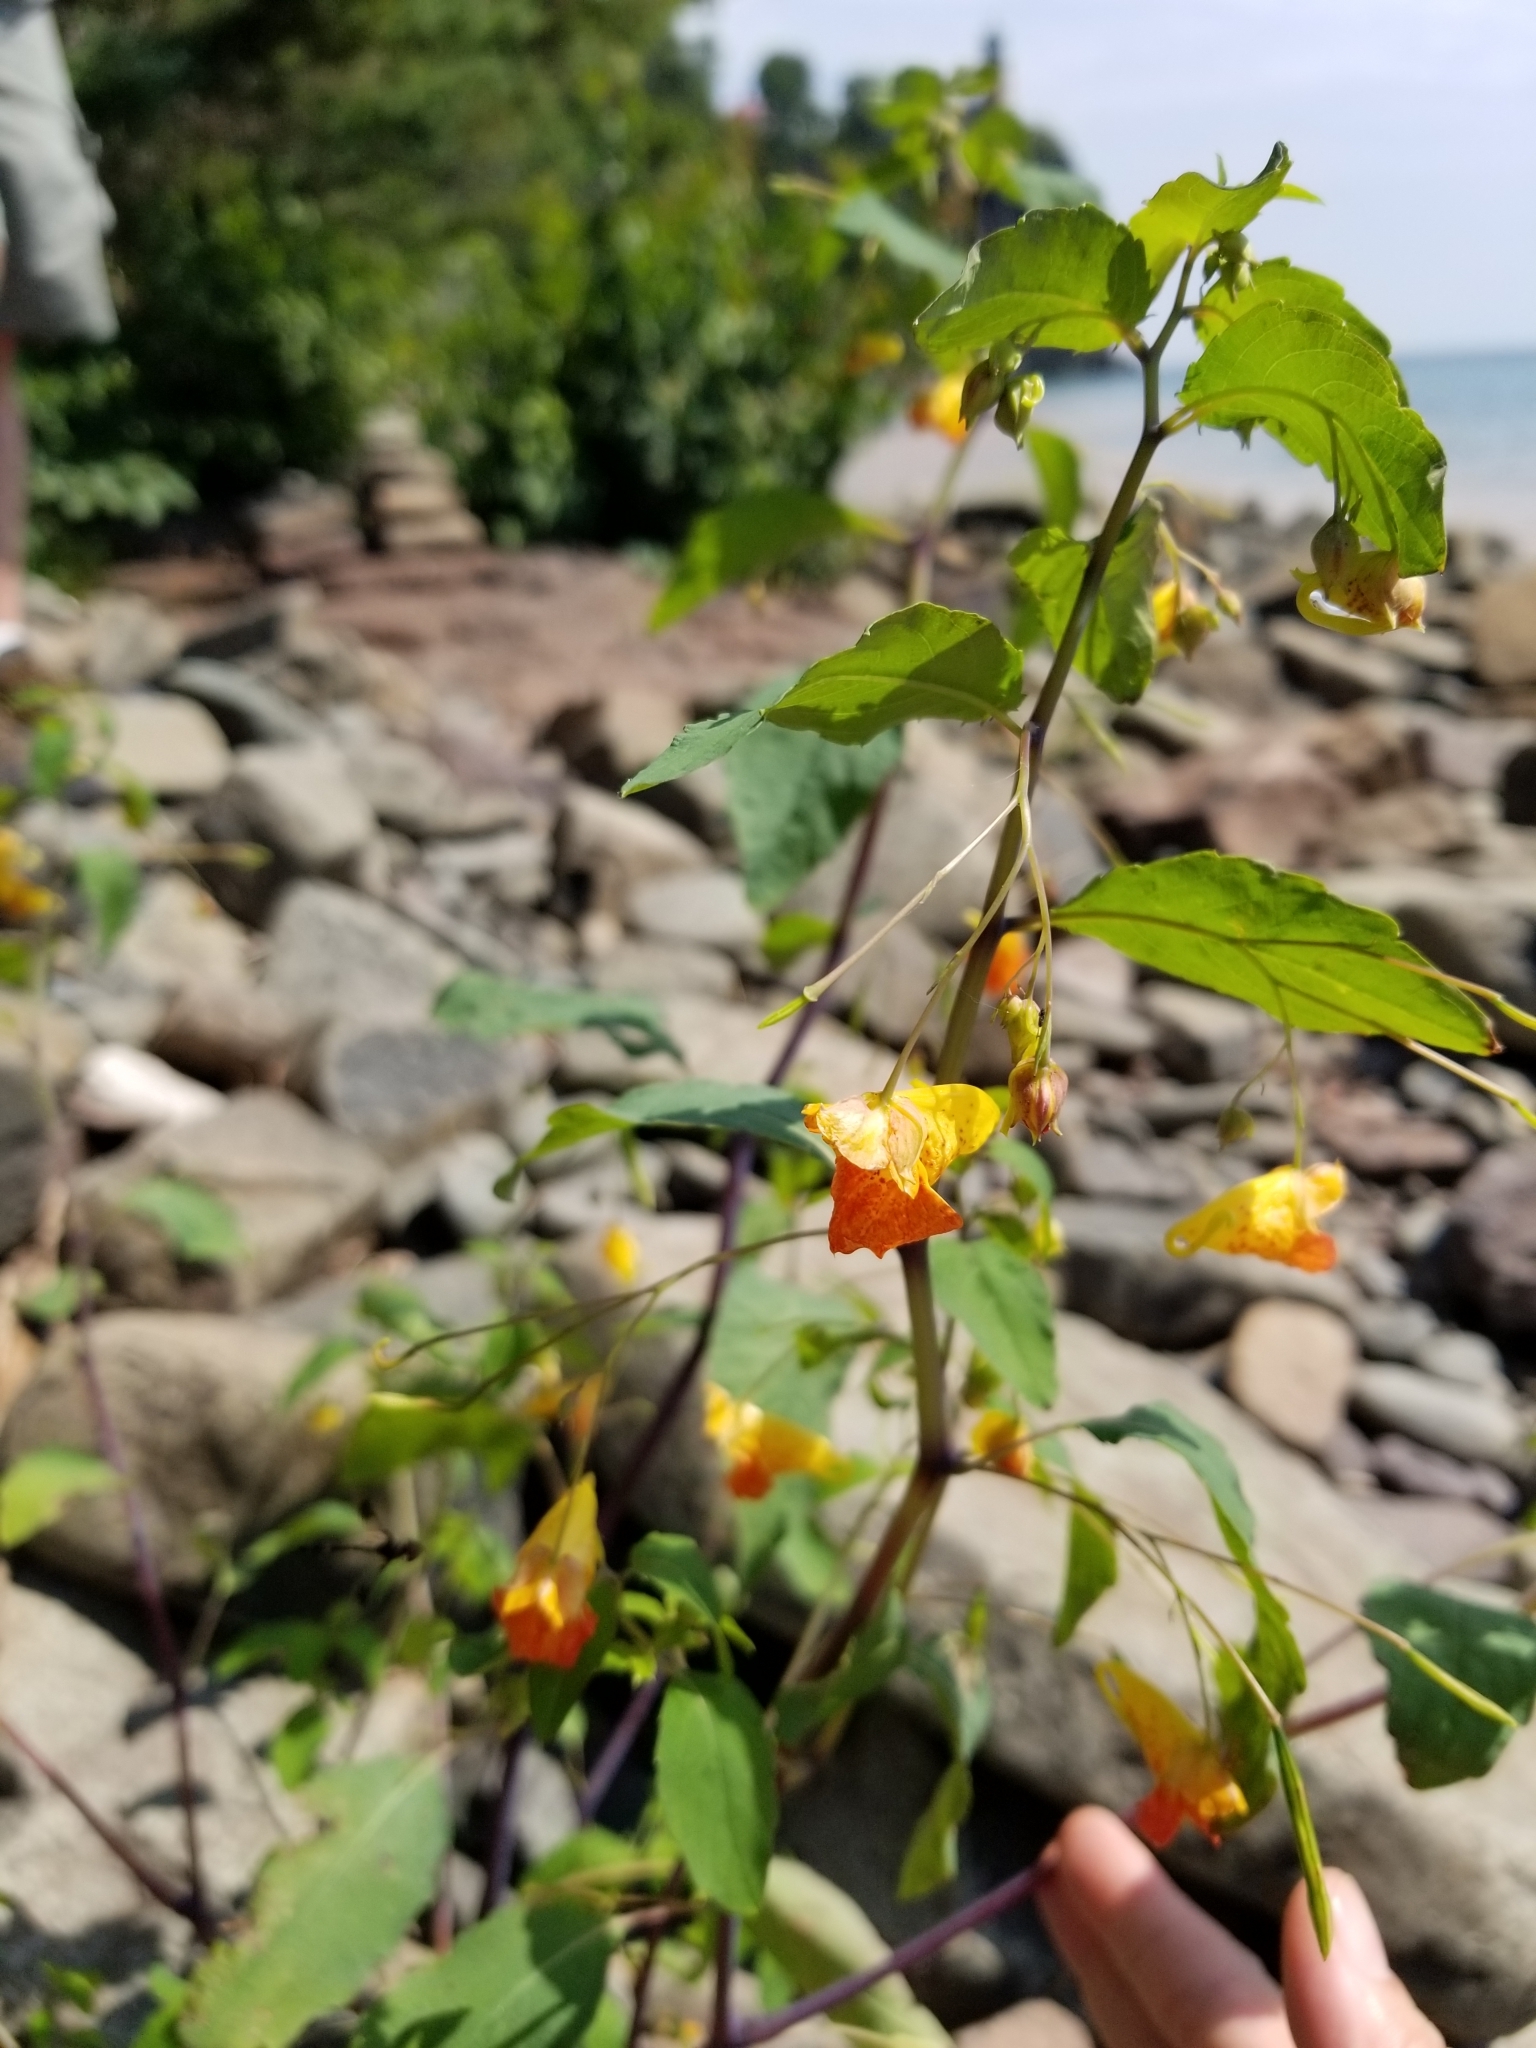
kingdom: Plantae
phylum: Tracheophyta
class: Magnoliopsida
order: Ericales
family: Balsaminaceae
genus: Impatiens
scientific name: Impatiens capensis
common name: Orange balsam
